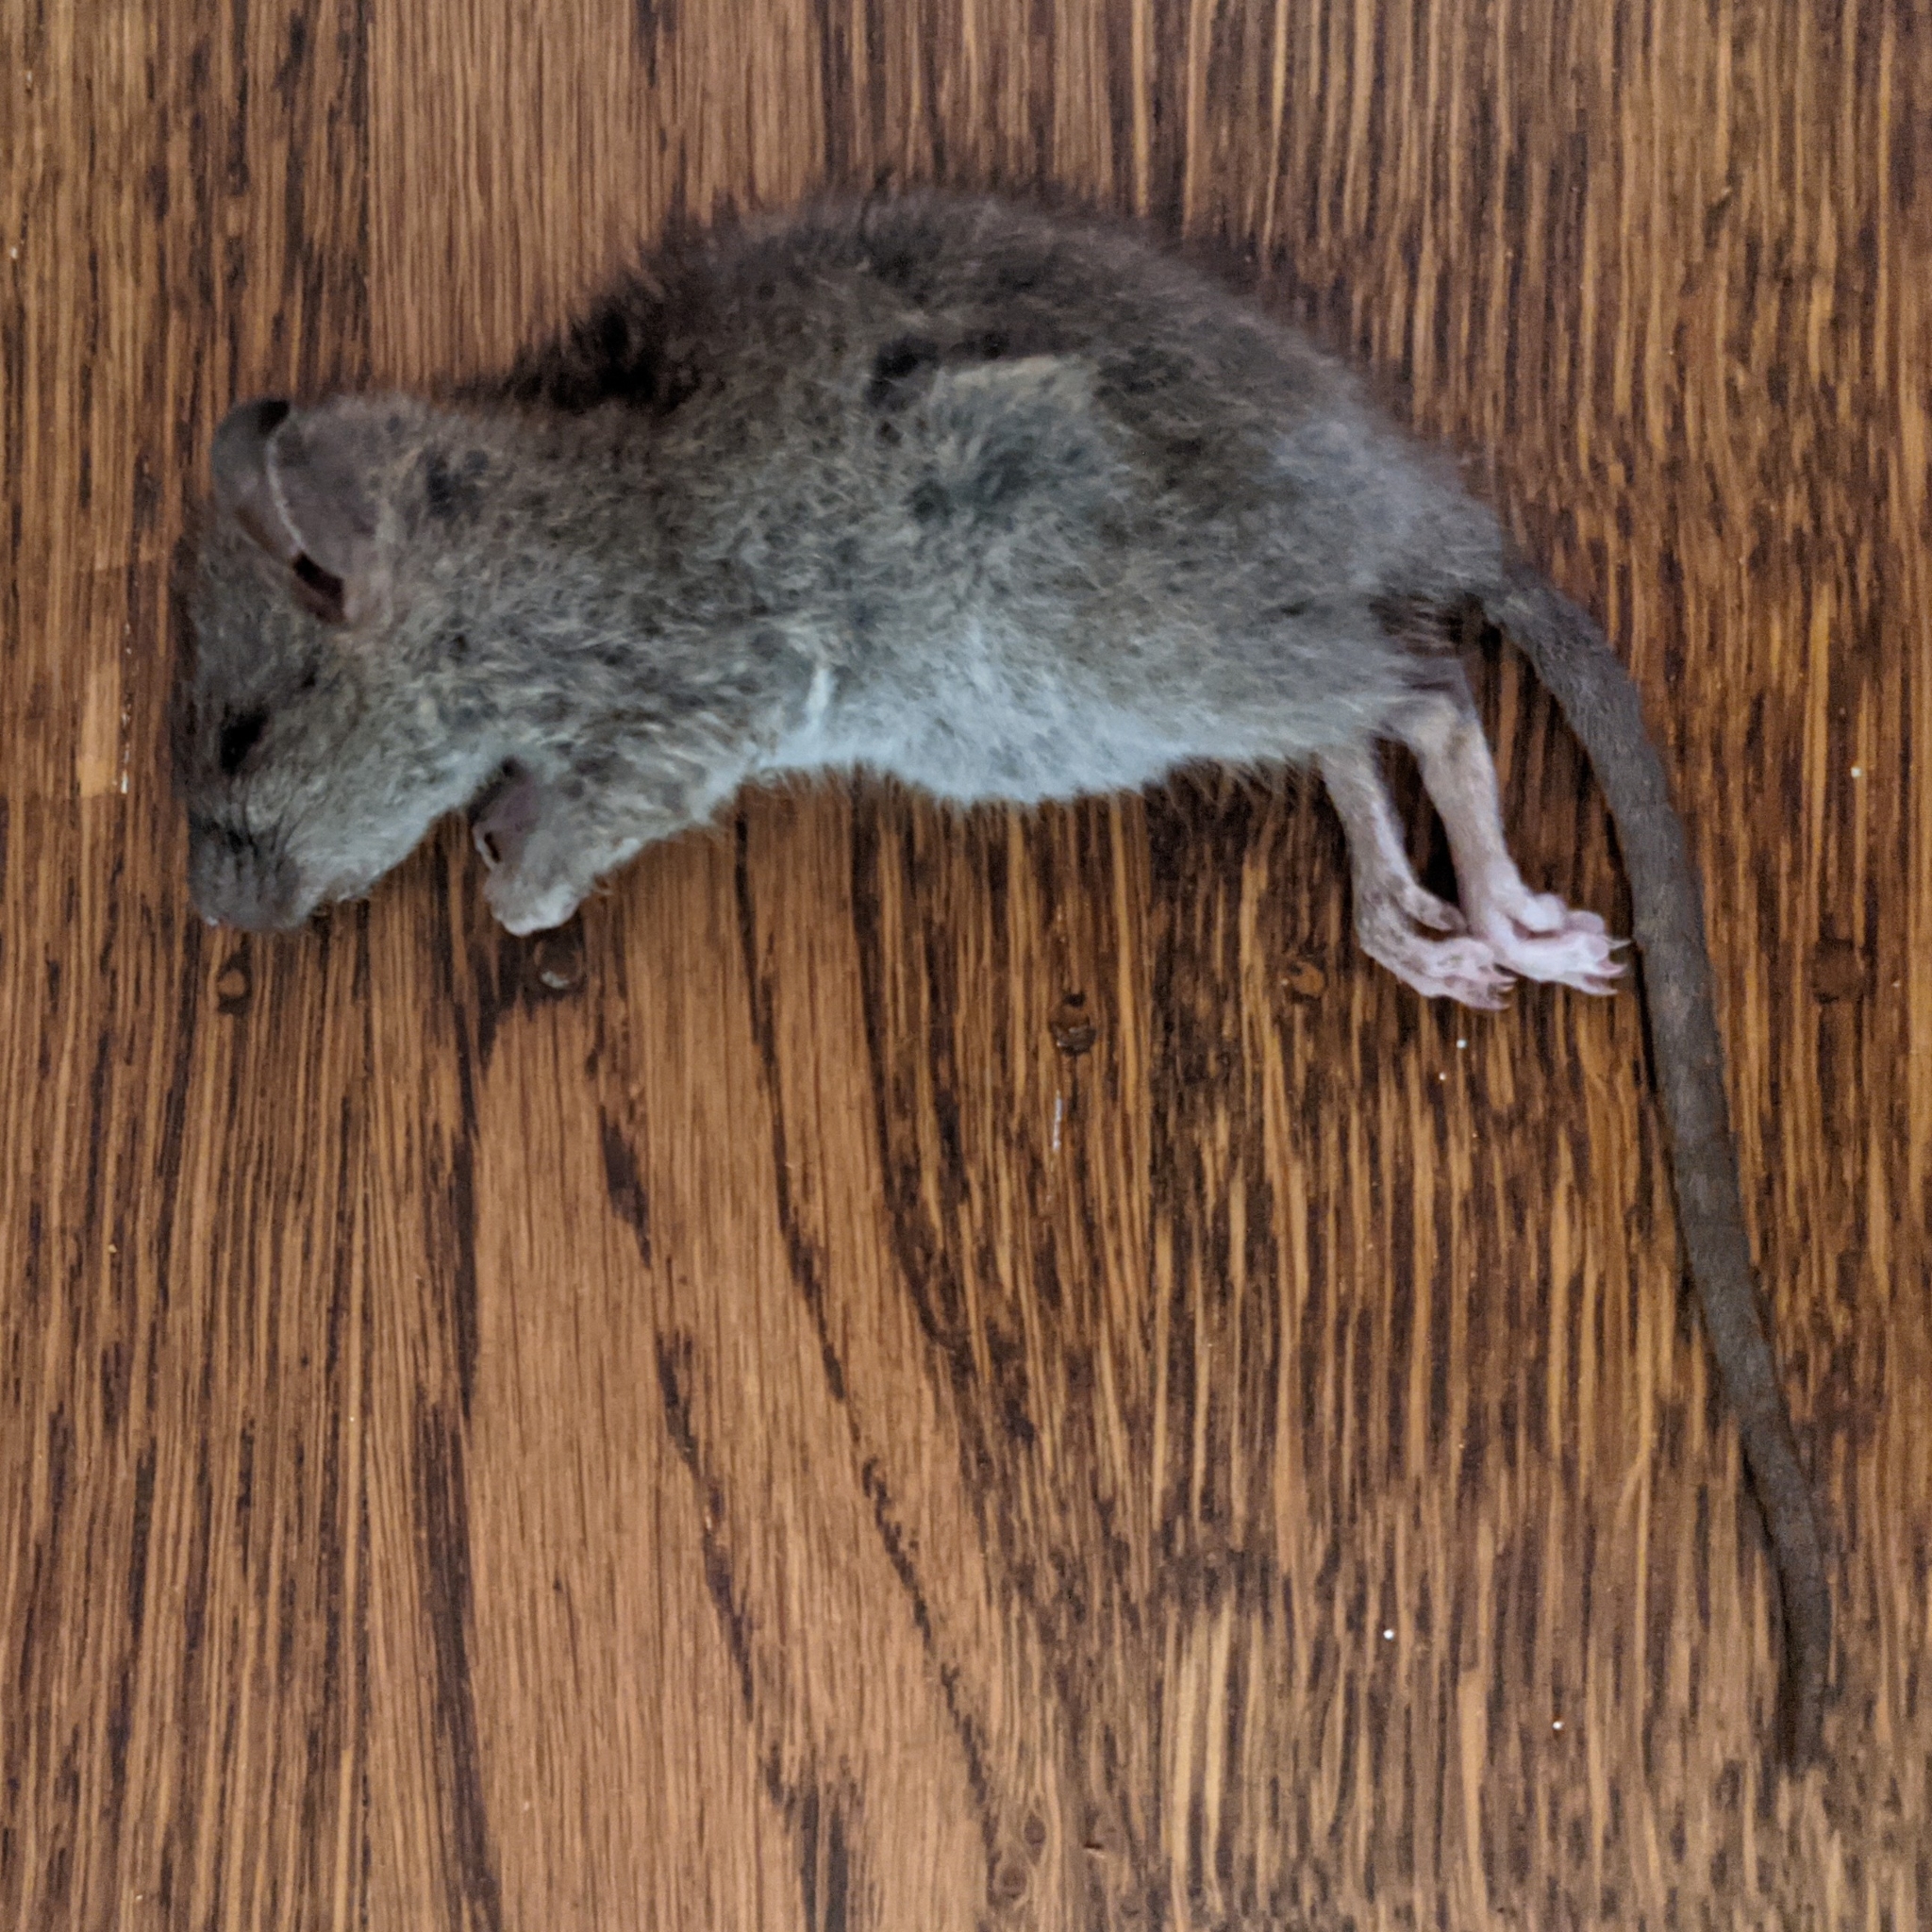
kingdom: Animalia
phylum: Chordata
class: Mammalia
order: Rodentia
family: Muridae
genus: Rattus
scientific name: Rattus norvegicus
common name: Brown rat
